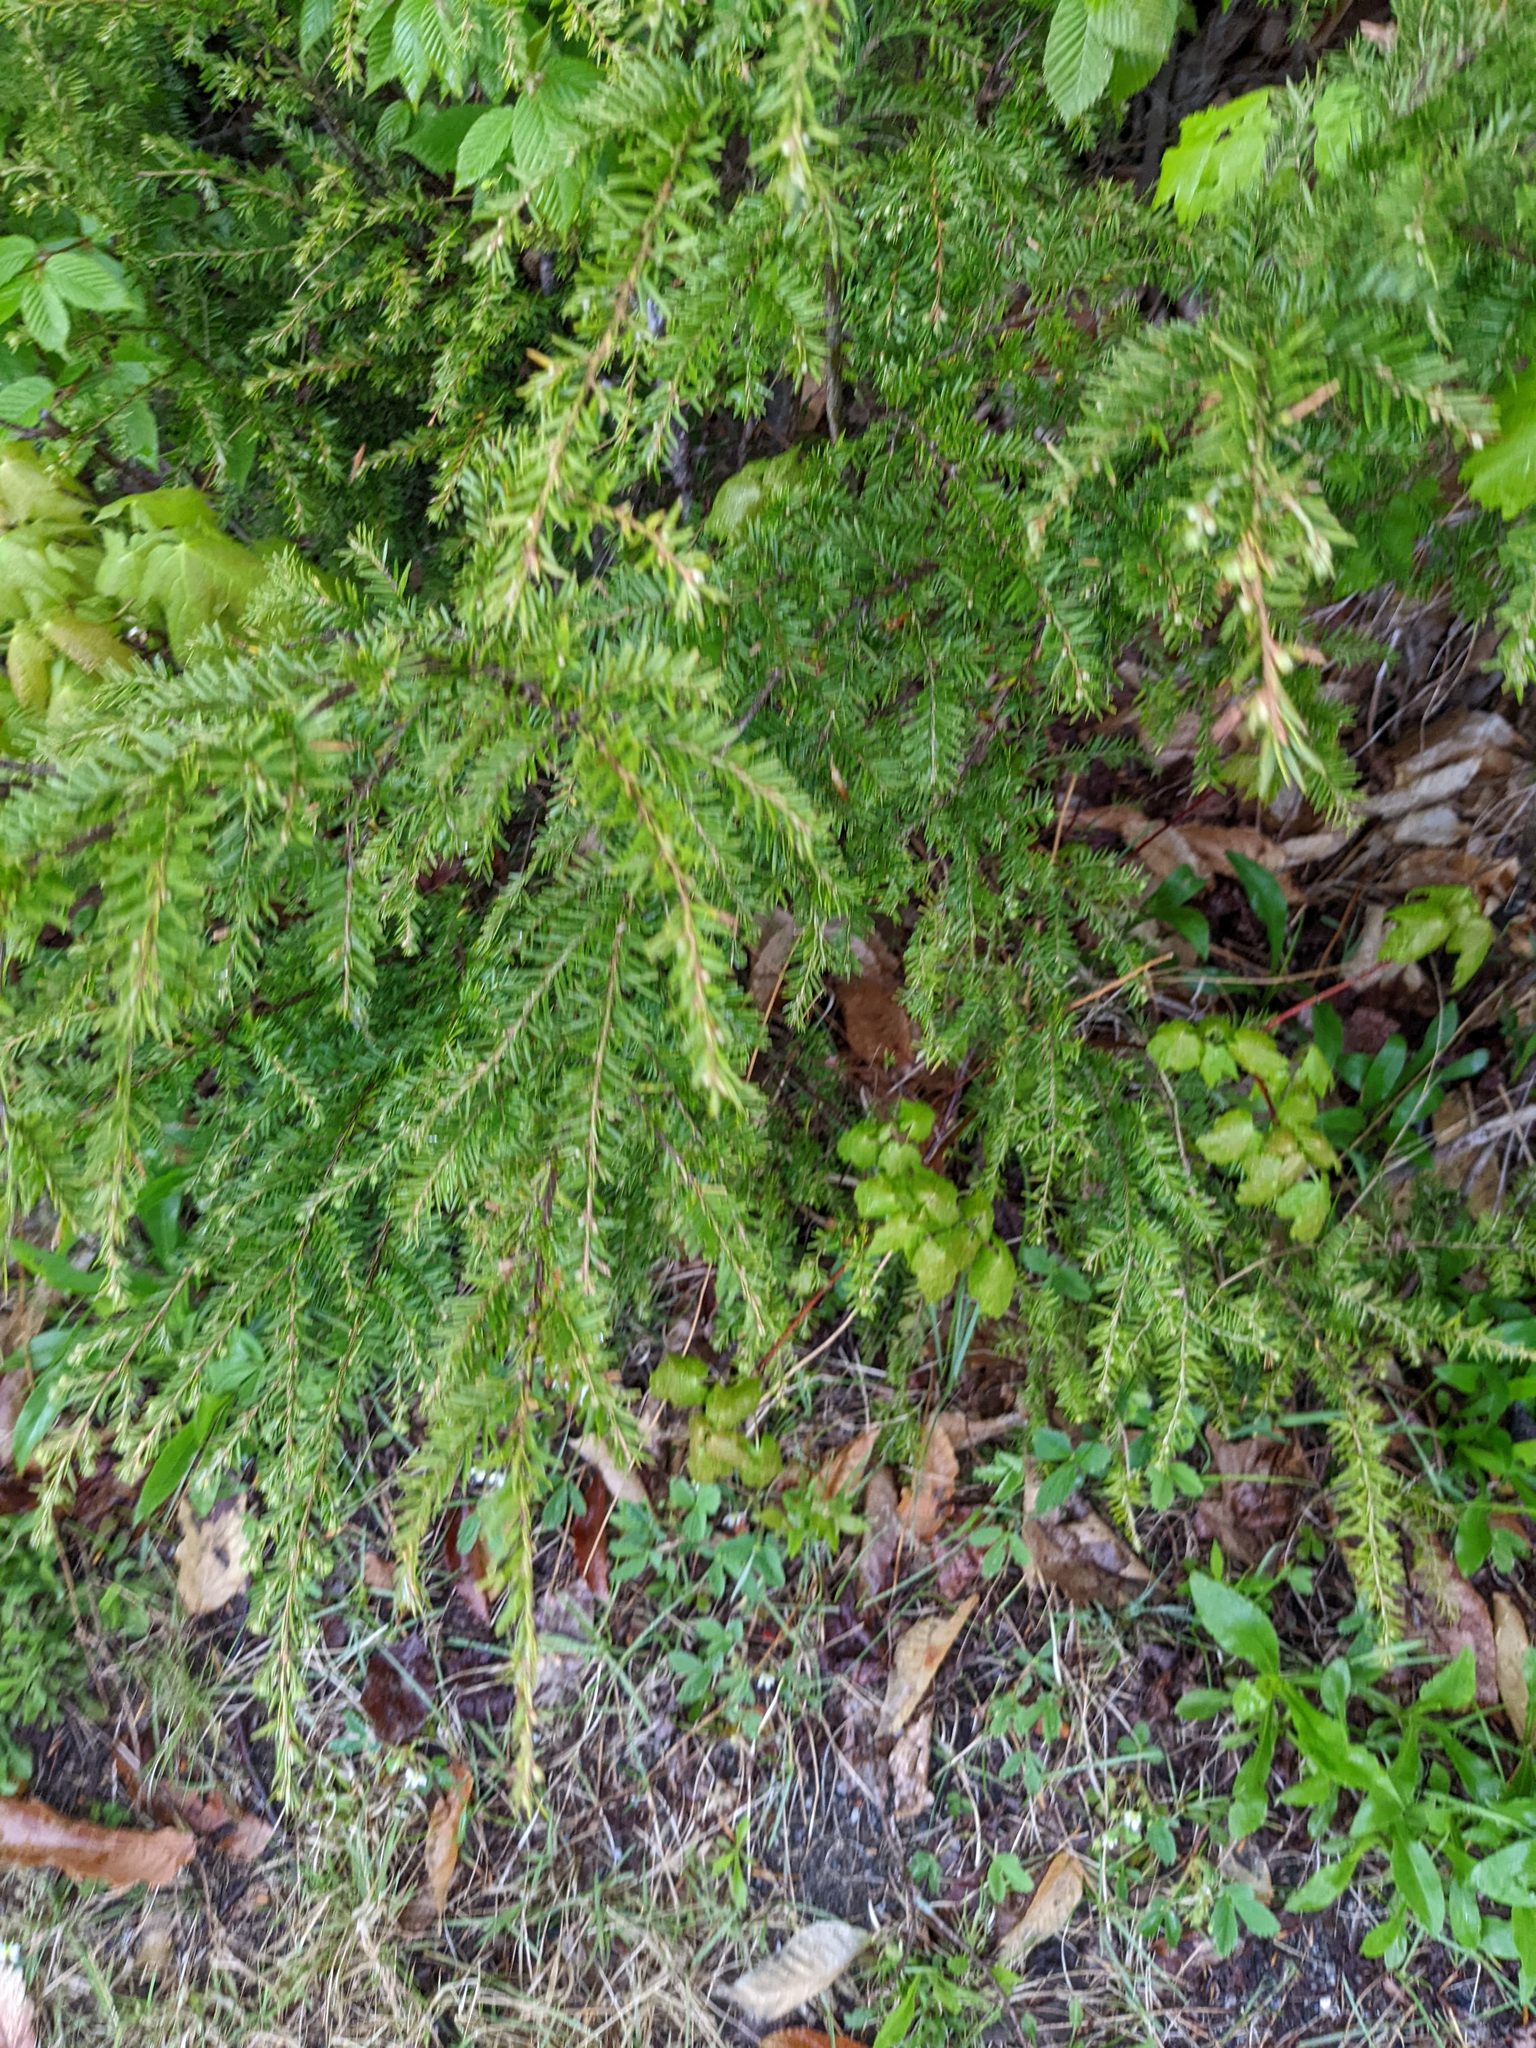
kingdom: Plantae
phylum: Tracheophyta
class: Pinopsida
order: Pinales
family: Pinaceae
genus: Tsuga
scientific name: Tsuga canadensis
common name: Eastern hemlock
